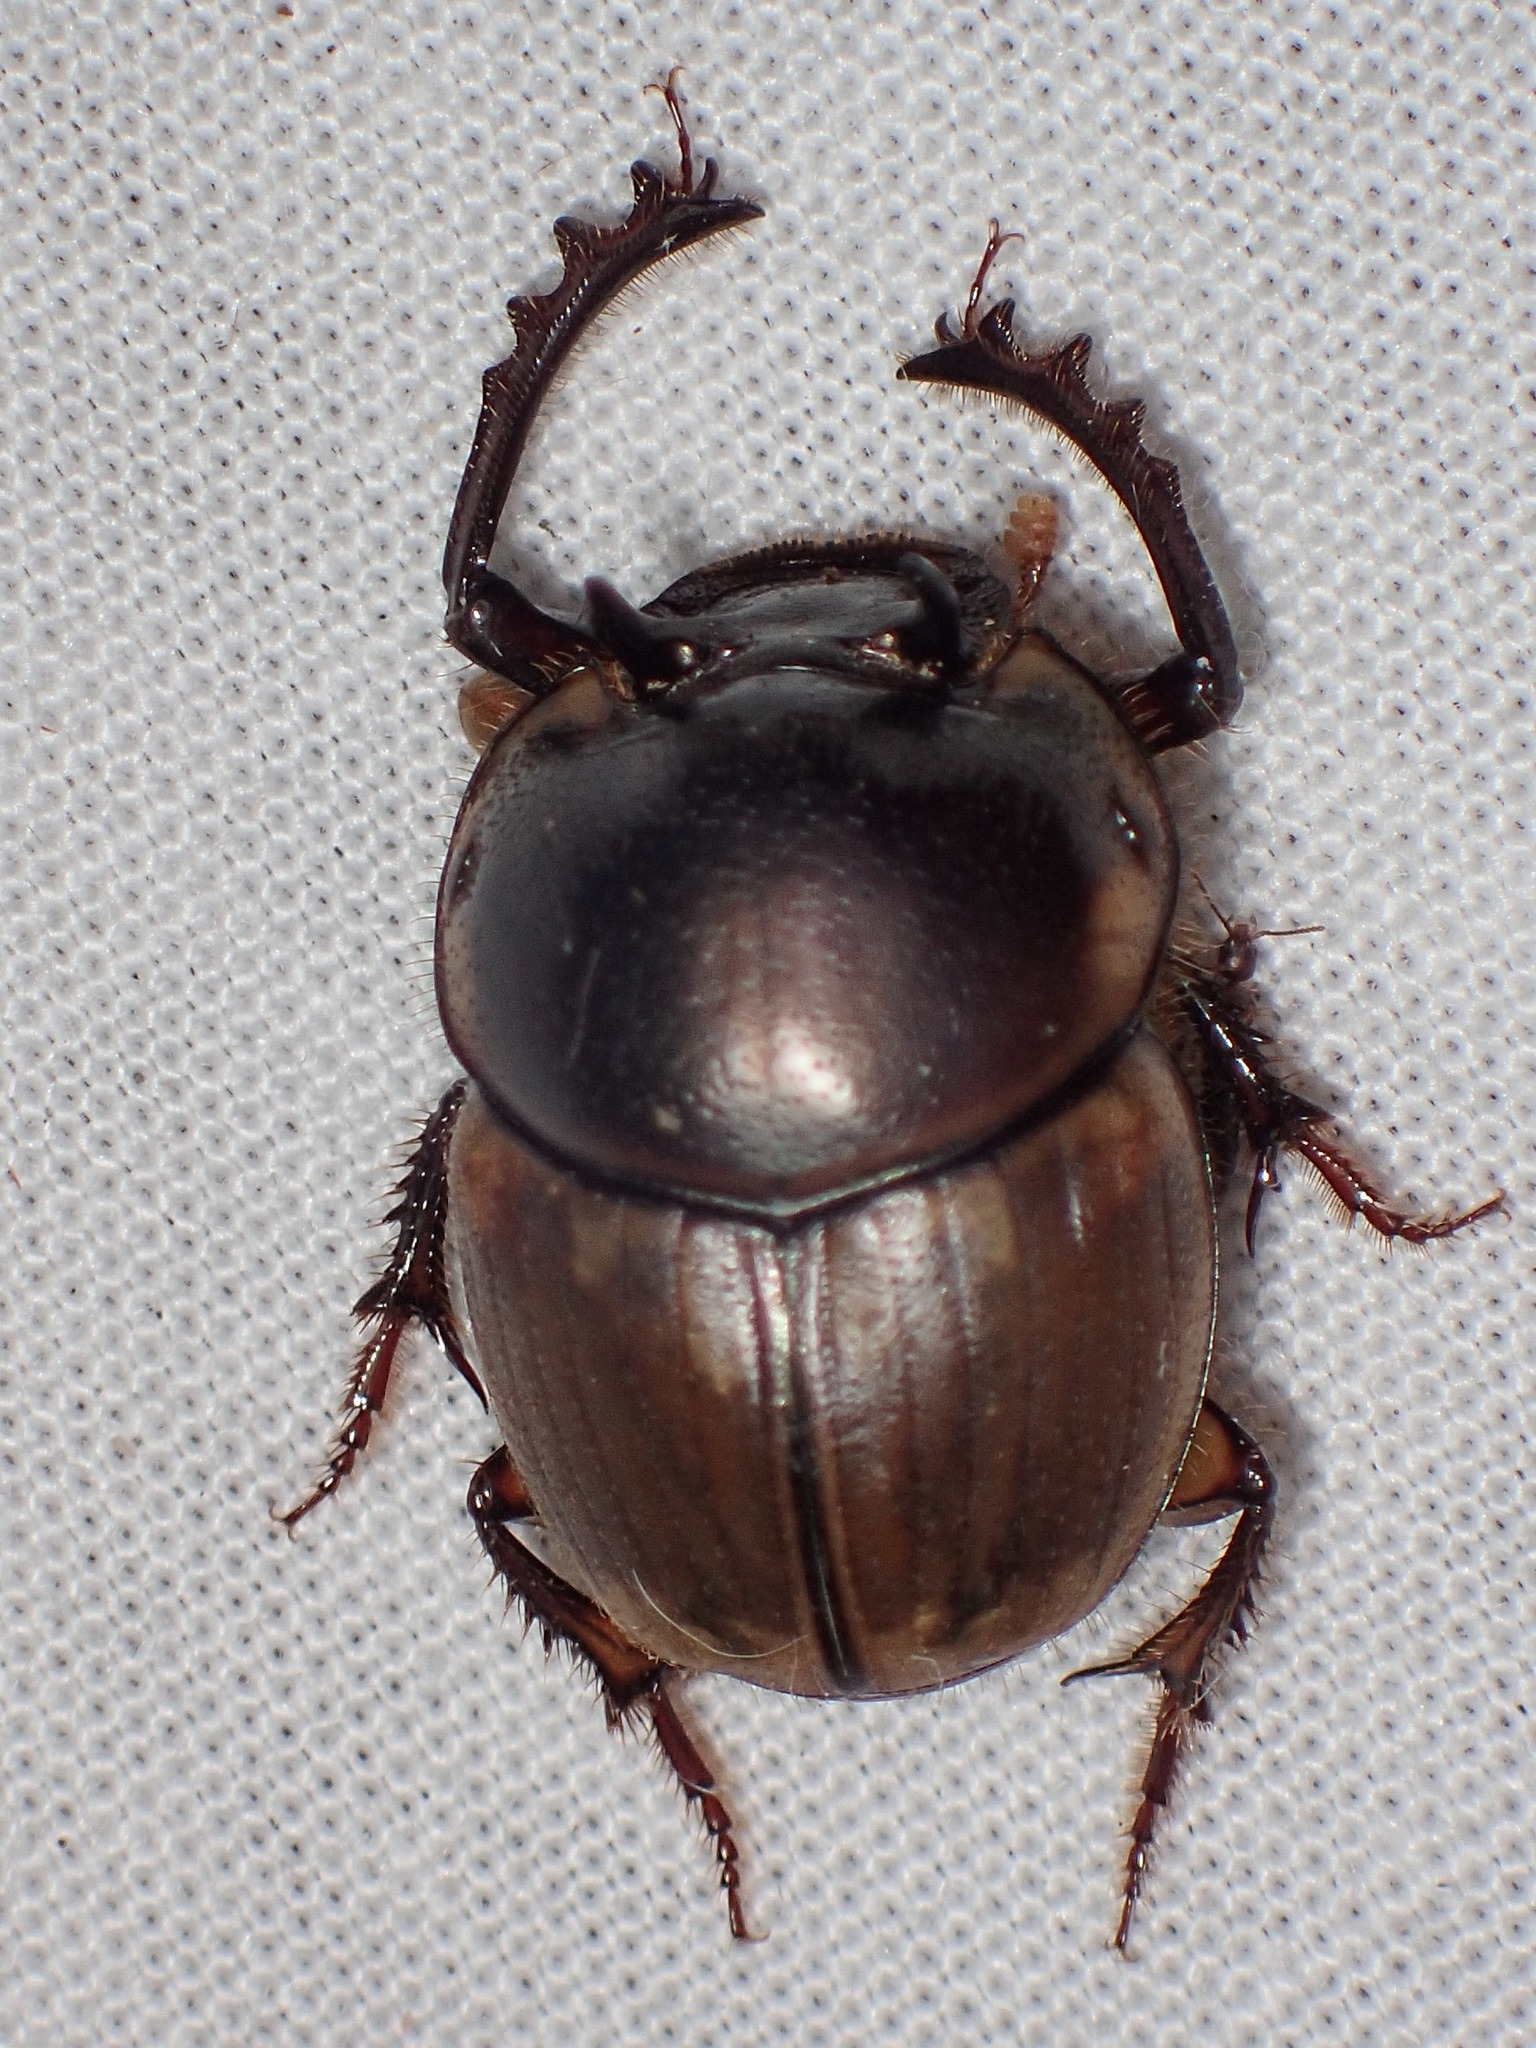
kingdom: Animalia
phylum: Arthropoda
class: Insecta
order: Coleoptera
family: Scarabaeidae
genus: Digitonthophagus
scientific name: Digitonthophagus gazella
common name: Brown dung beetle
